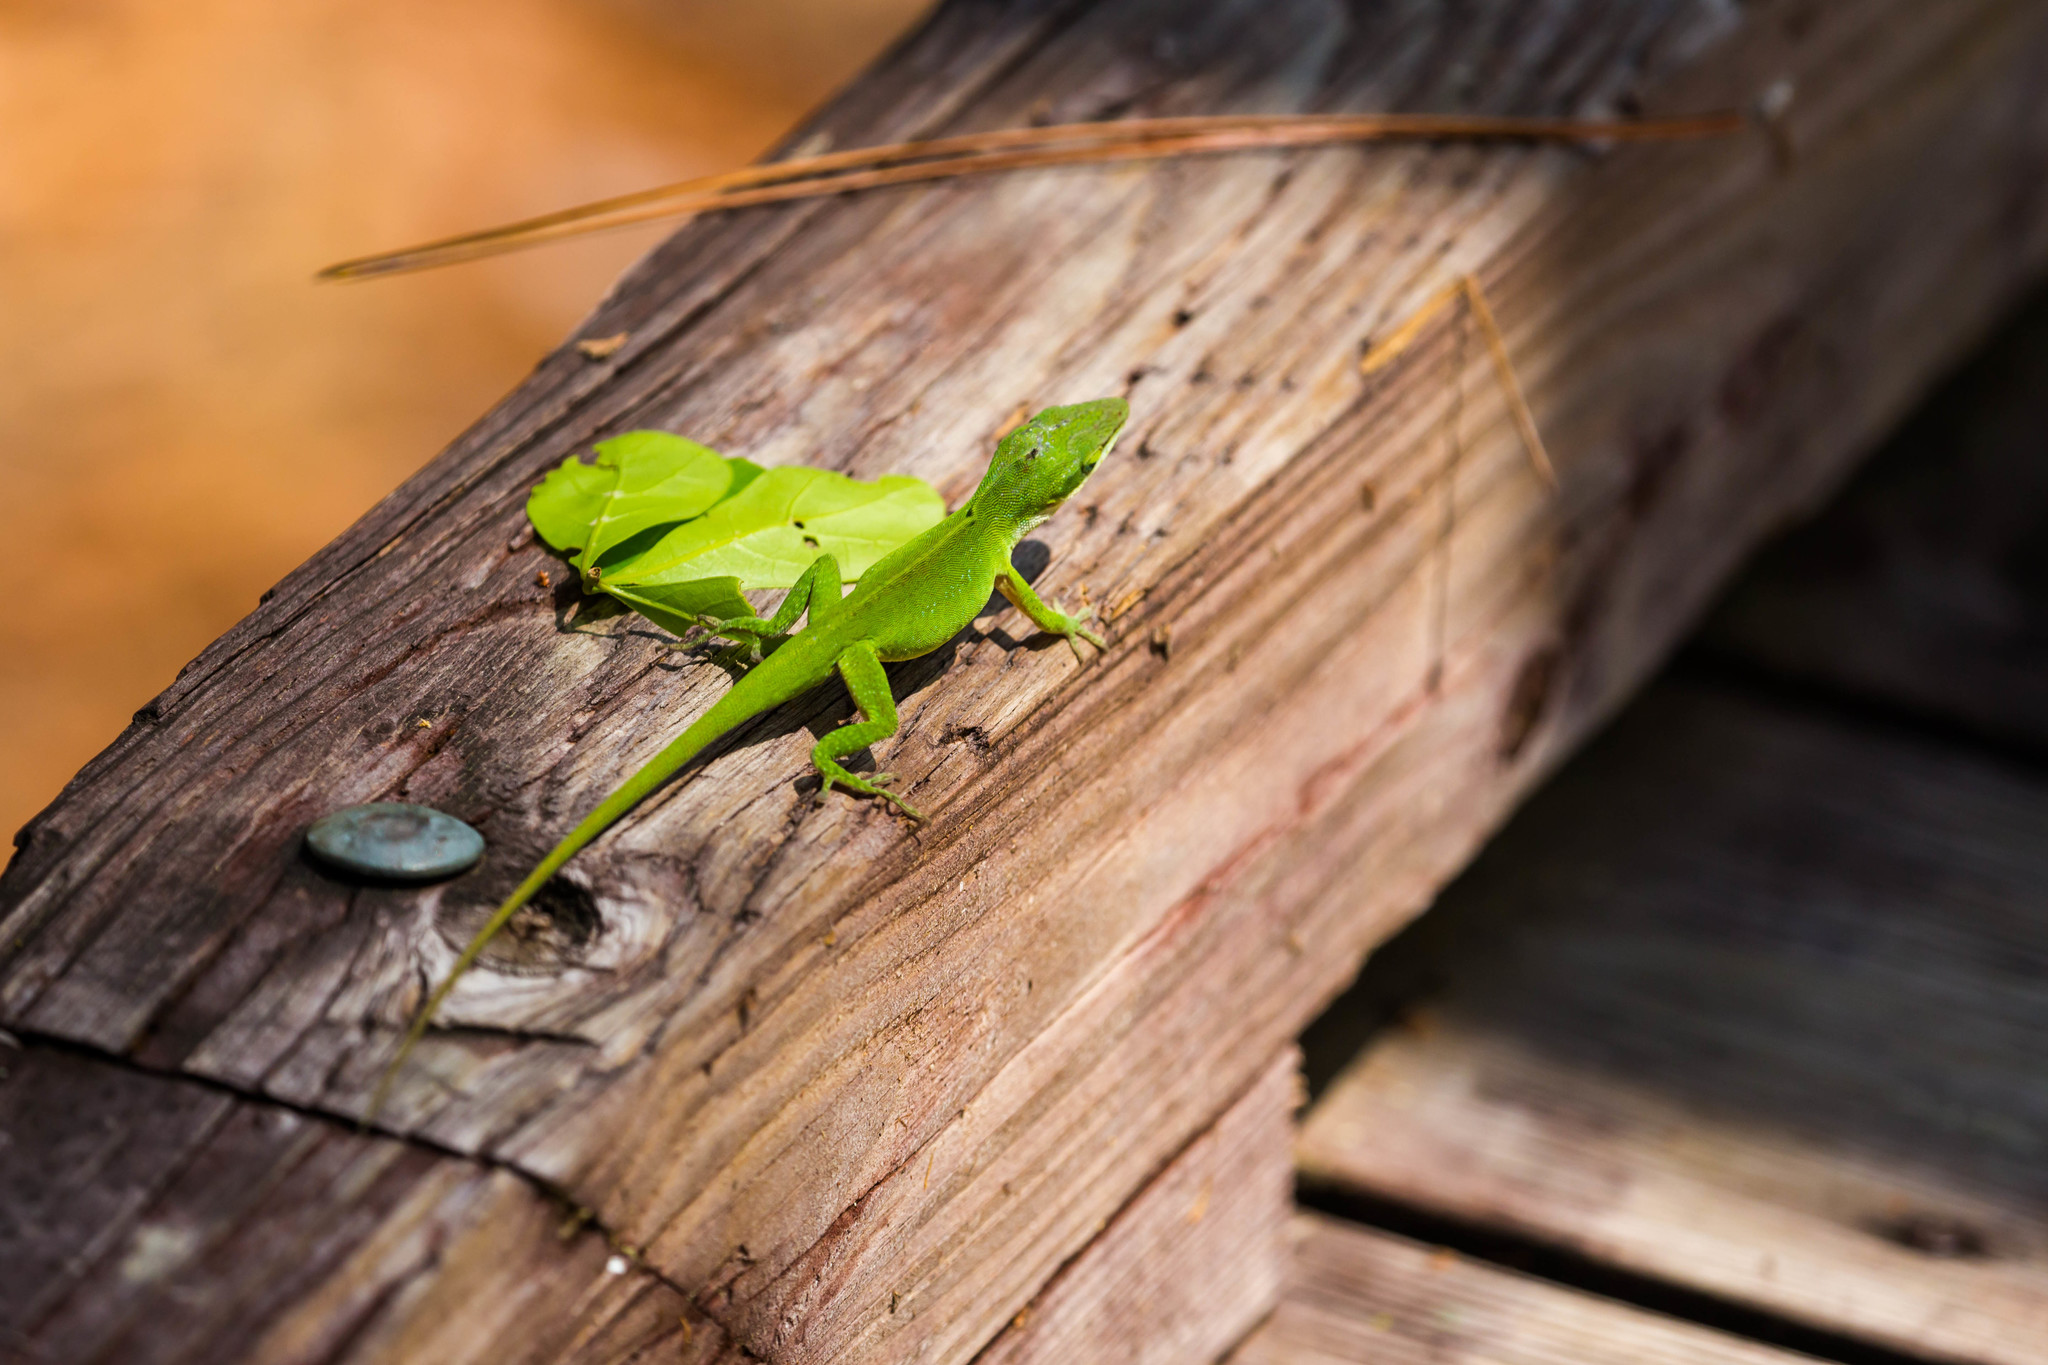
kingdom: Animalia
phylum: Chordata
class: Squamata
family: Dactyloidae
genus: Anolis
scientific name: Anolis carolinensis
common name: Green anole
